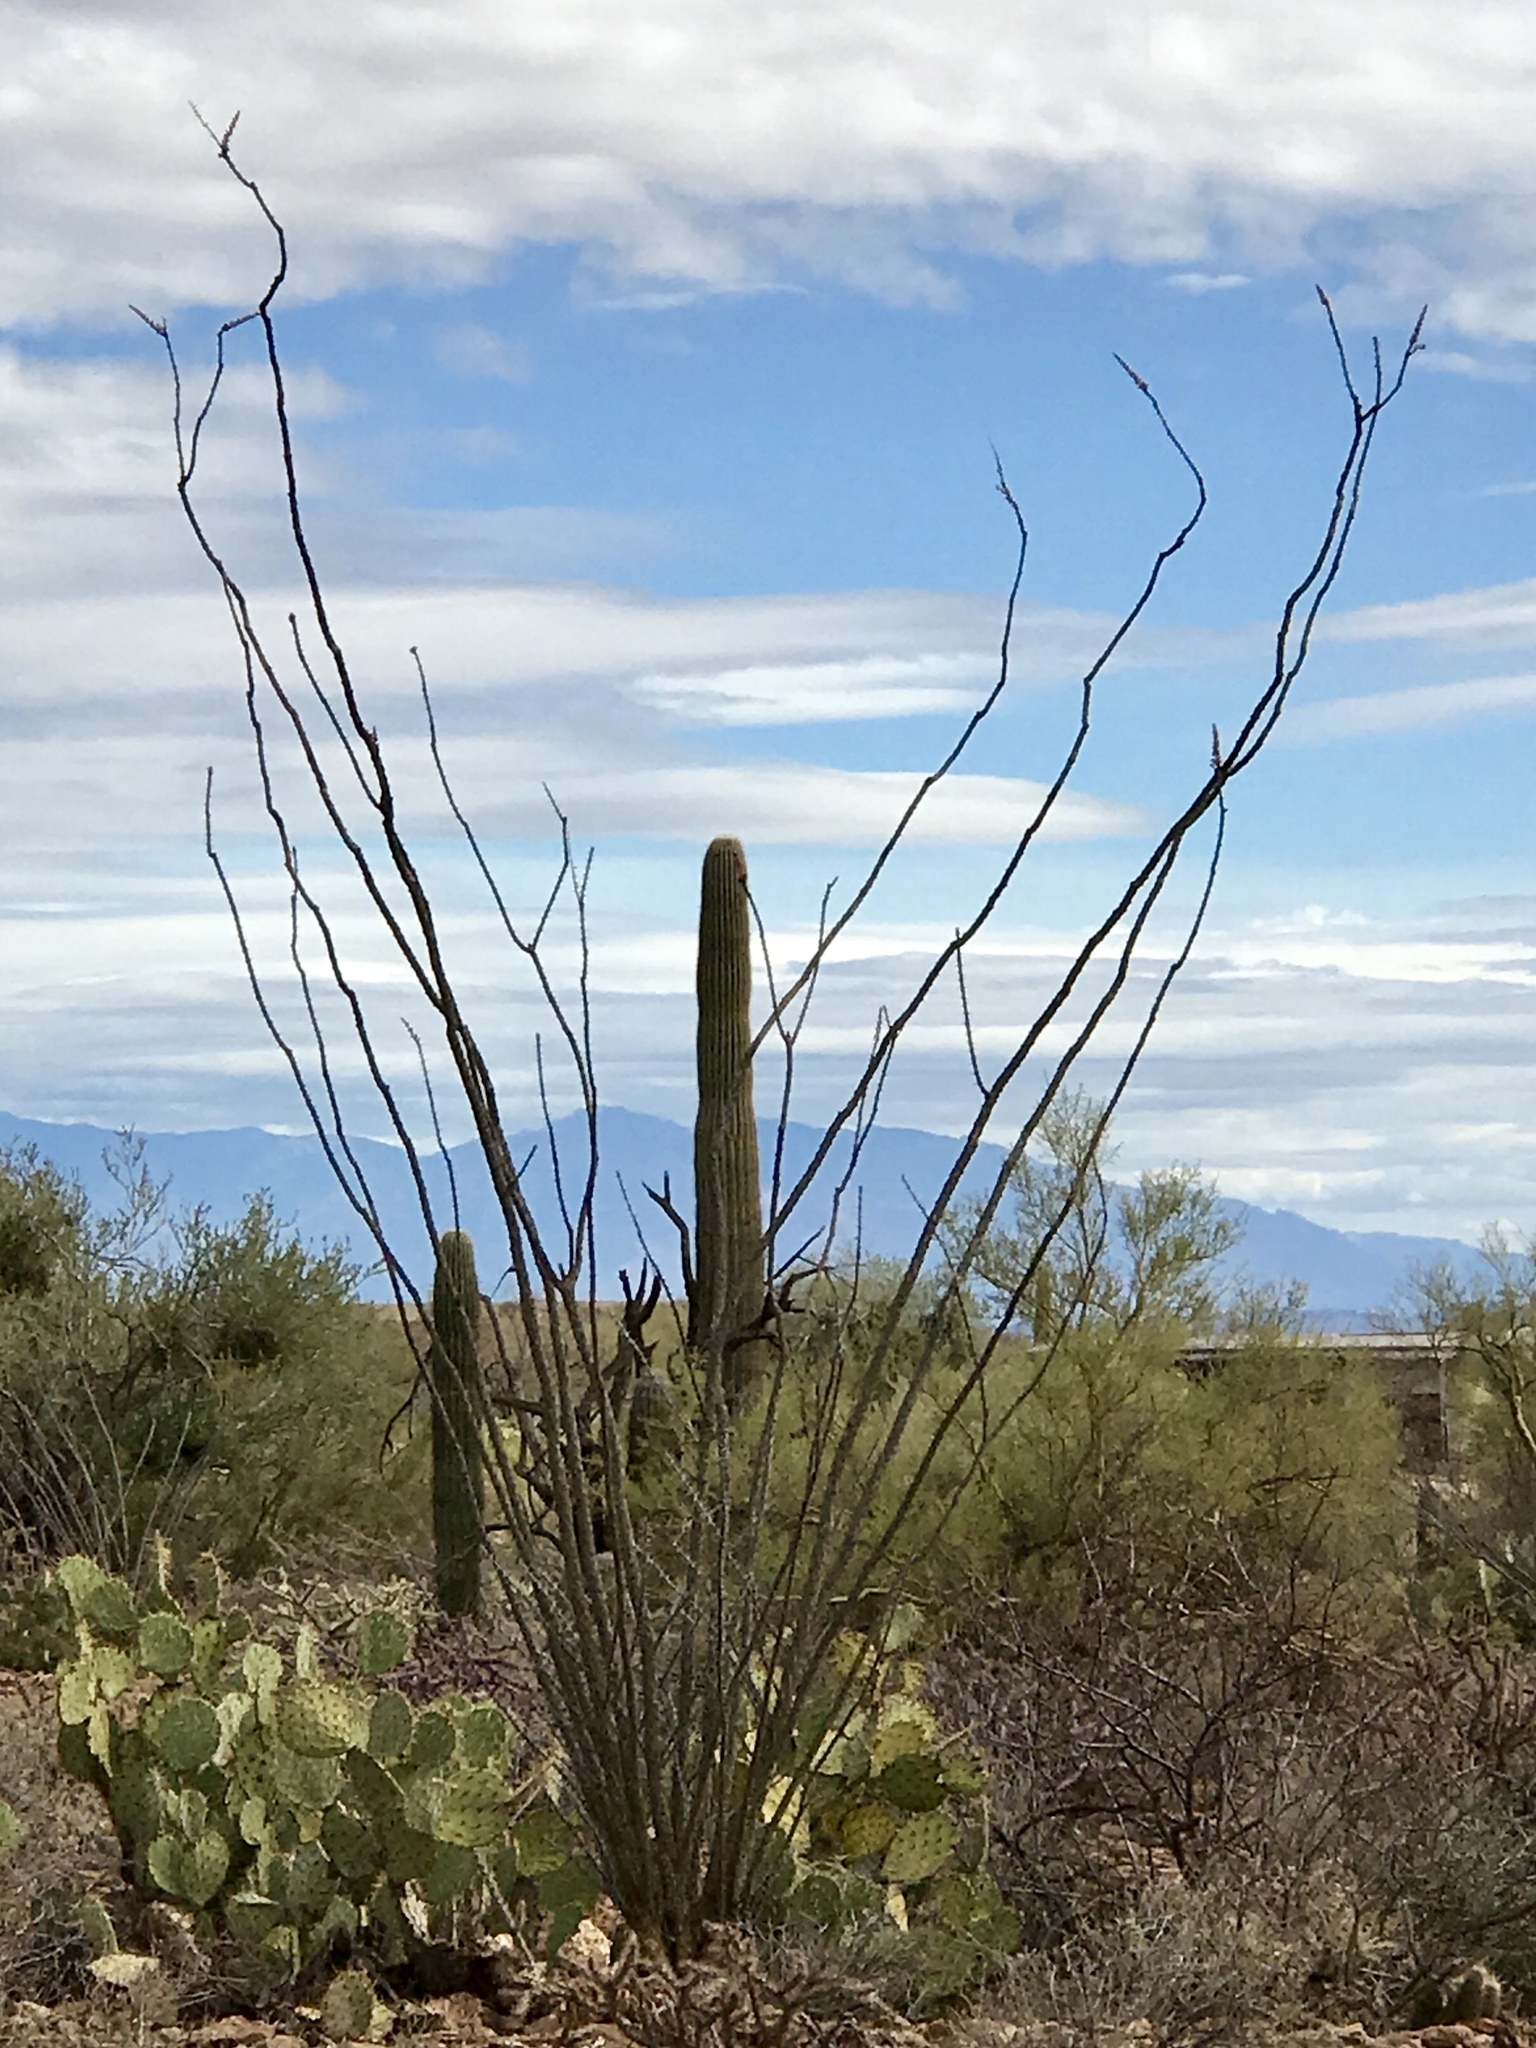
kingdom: Plantae
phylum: Tracheophyta
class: Magnoliopsida
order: Ericales
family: Fouquieriaceae
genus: Fouquieria
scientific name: Fouquieria splendens
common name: Vine-cactus
